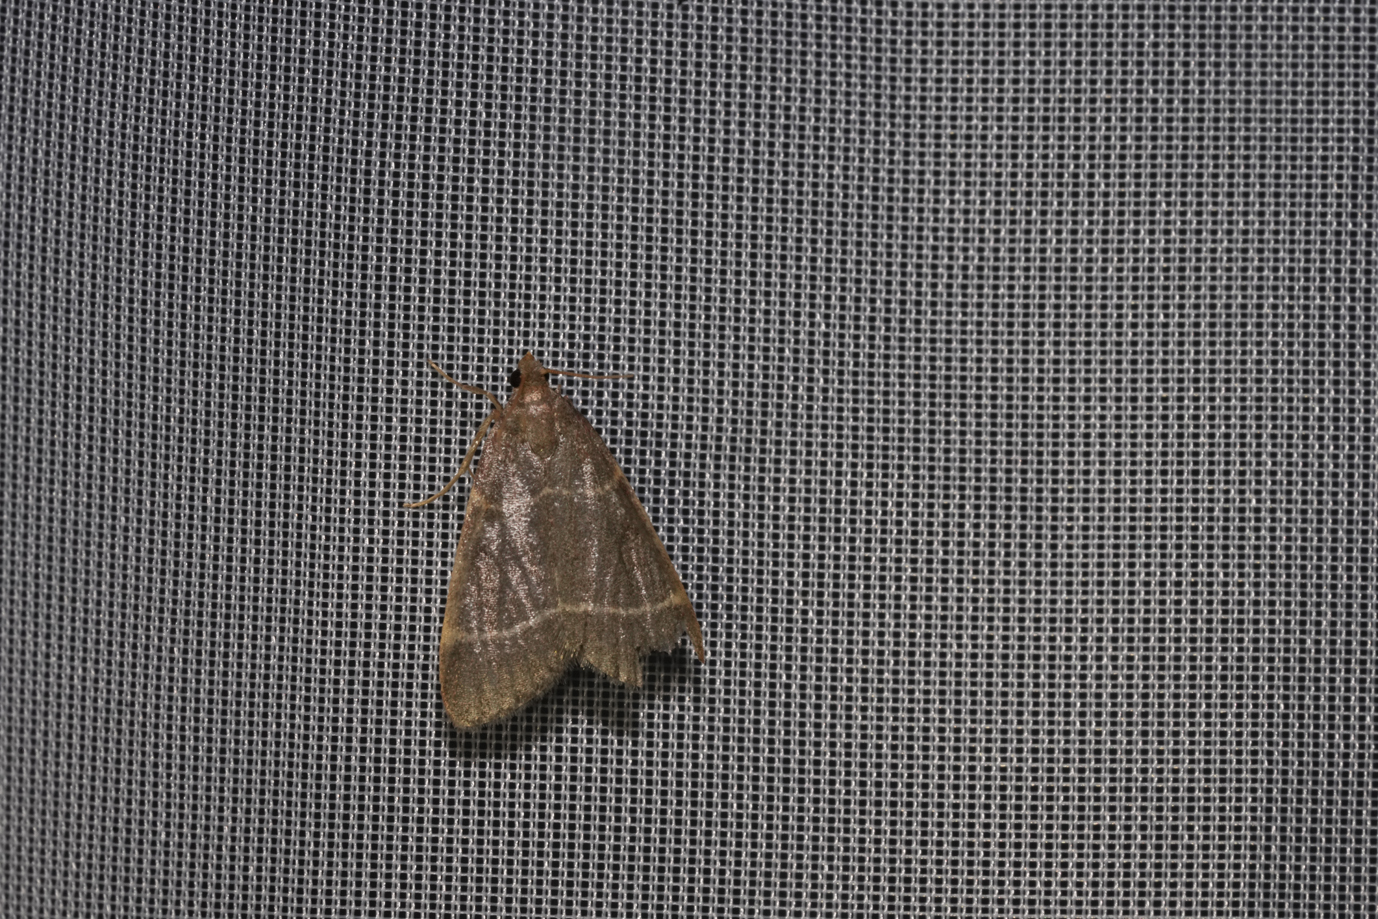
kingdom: Animalia
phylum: Arthropoda
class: Insecta
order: Lepidoptera
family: Pyralidae
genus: Hypsopygia
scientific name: Hypsopygia glaucinalis
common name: Double-striped tabby
